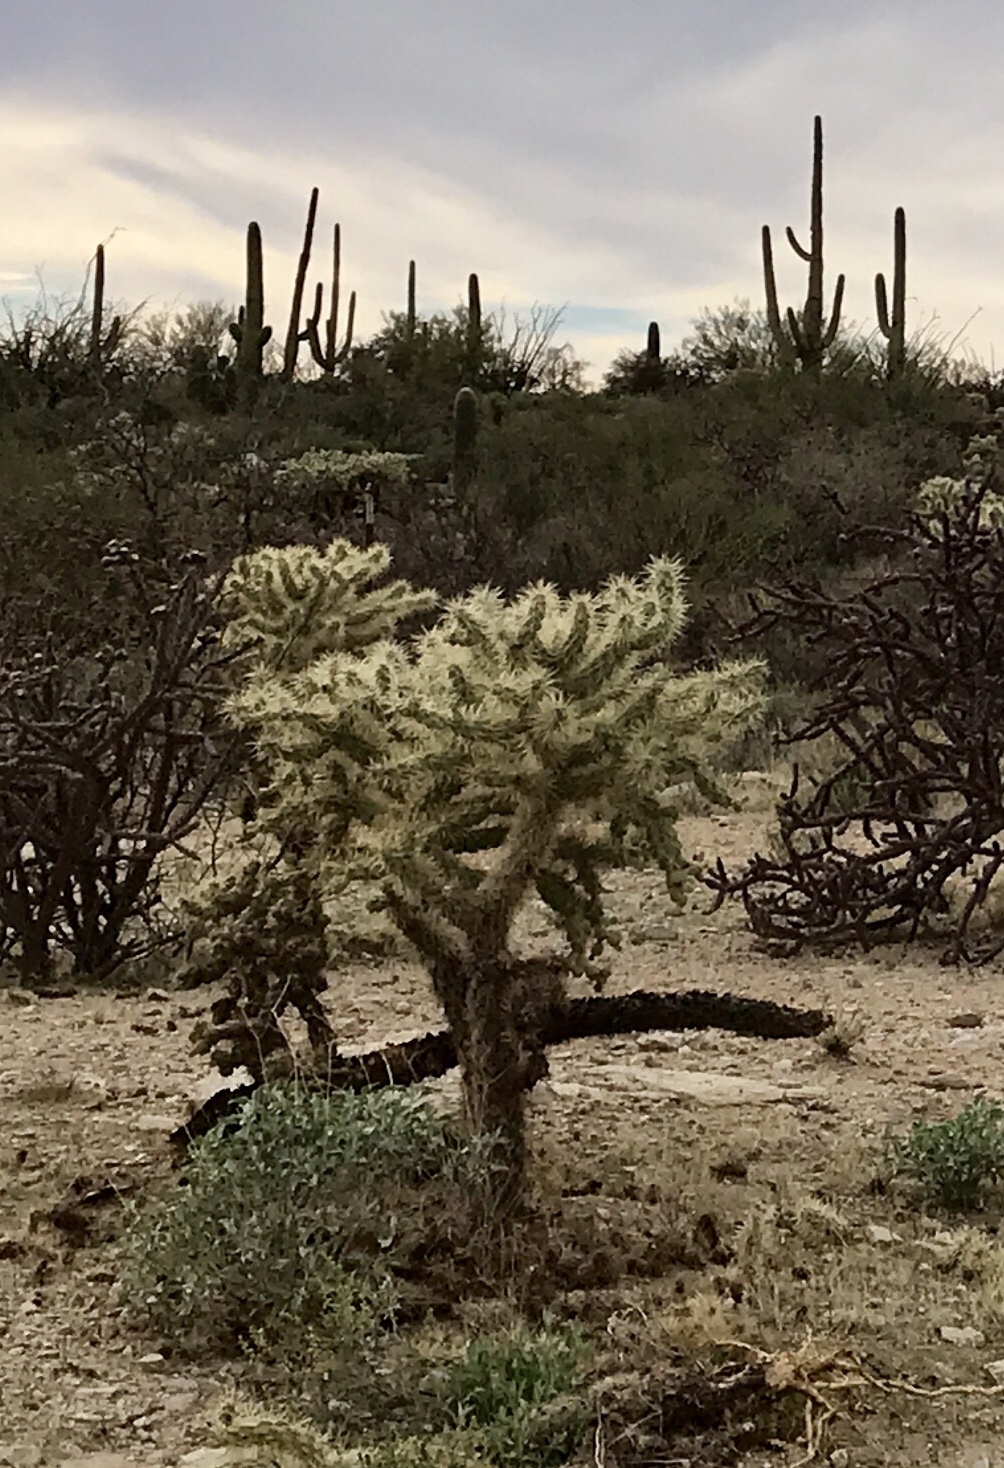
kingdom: Plantae
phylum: Tracheophyta
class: Magnoliopsida
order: Caryophyllales
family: Cactaceae
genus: Cylindropuntia
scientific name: Cylindropuntia fulgida
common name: Jumping cholla
